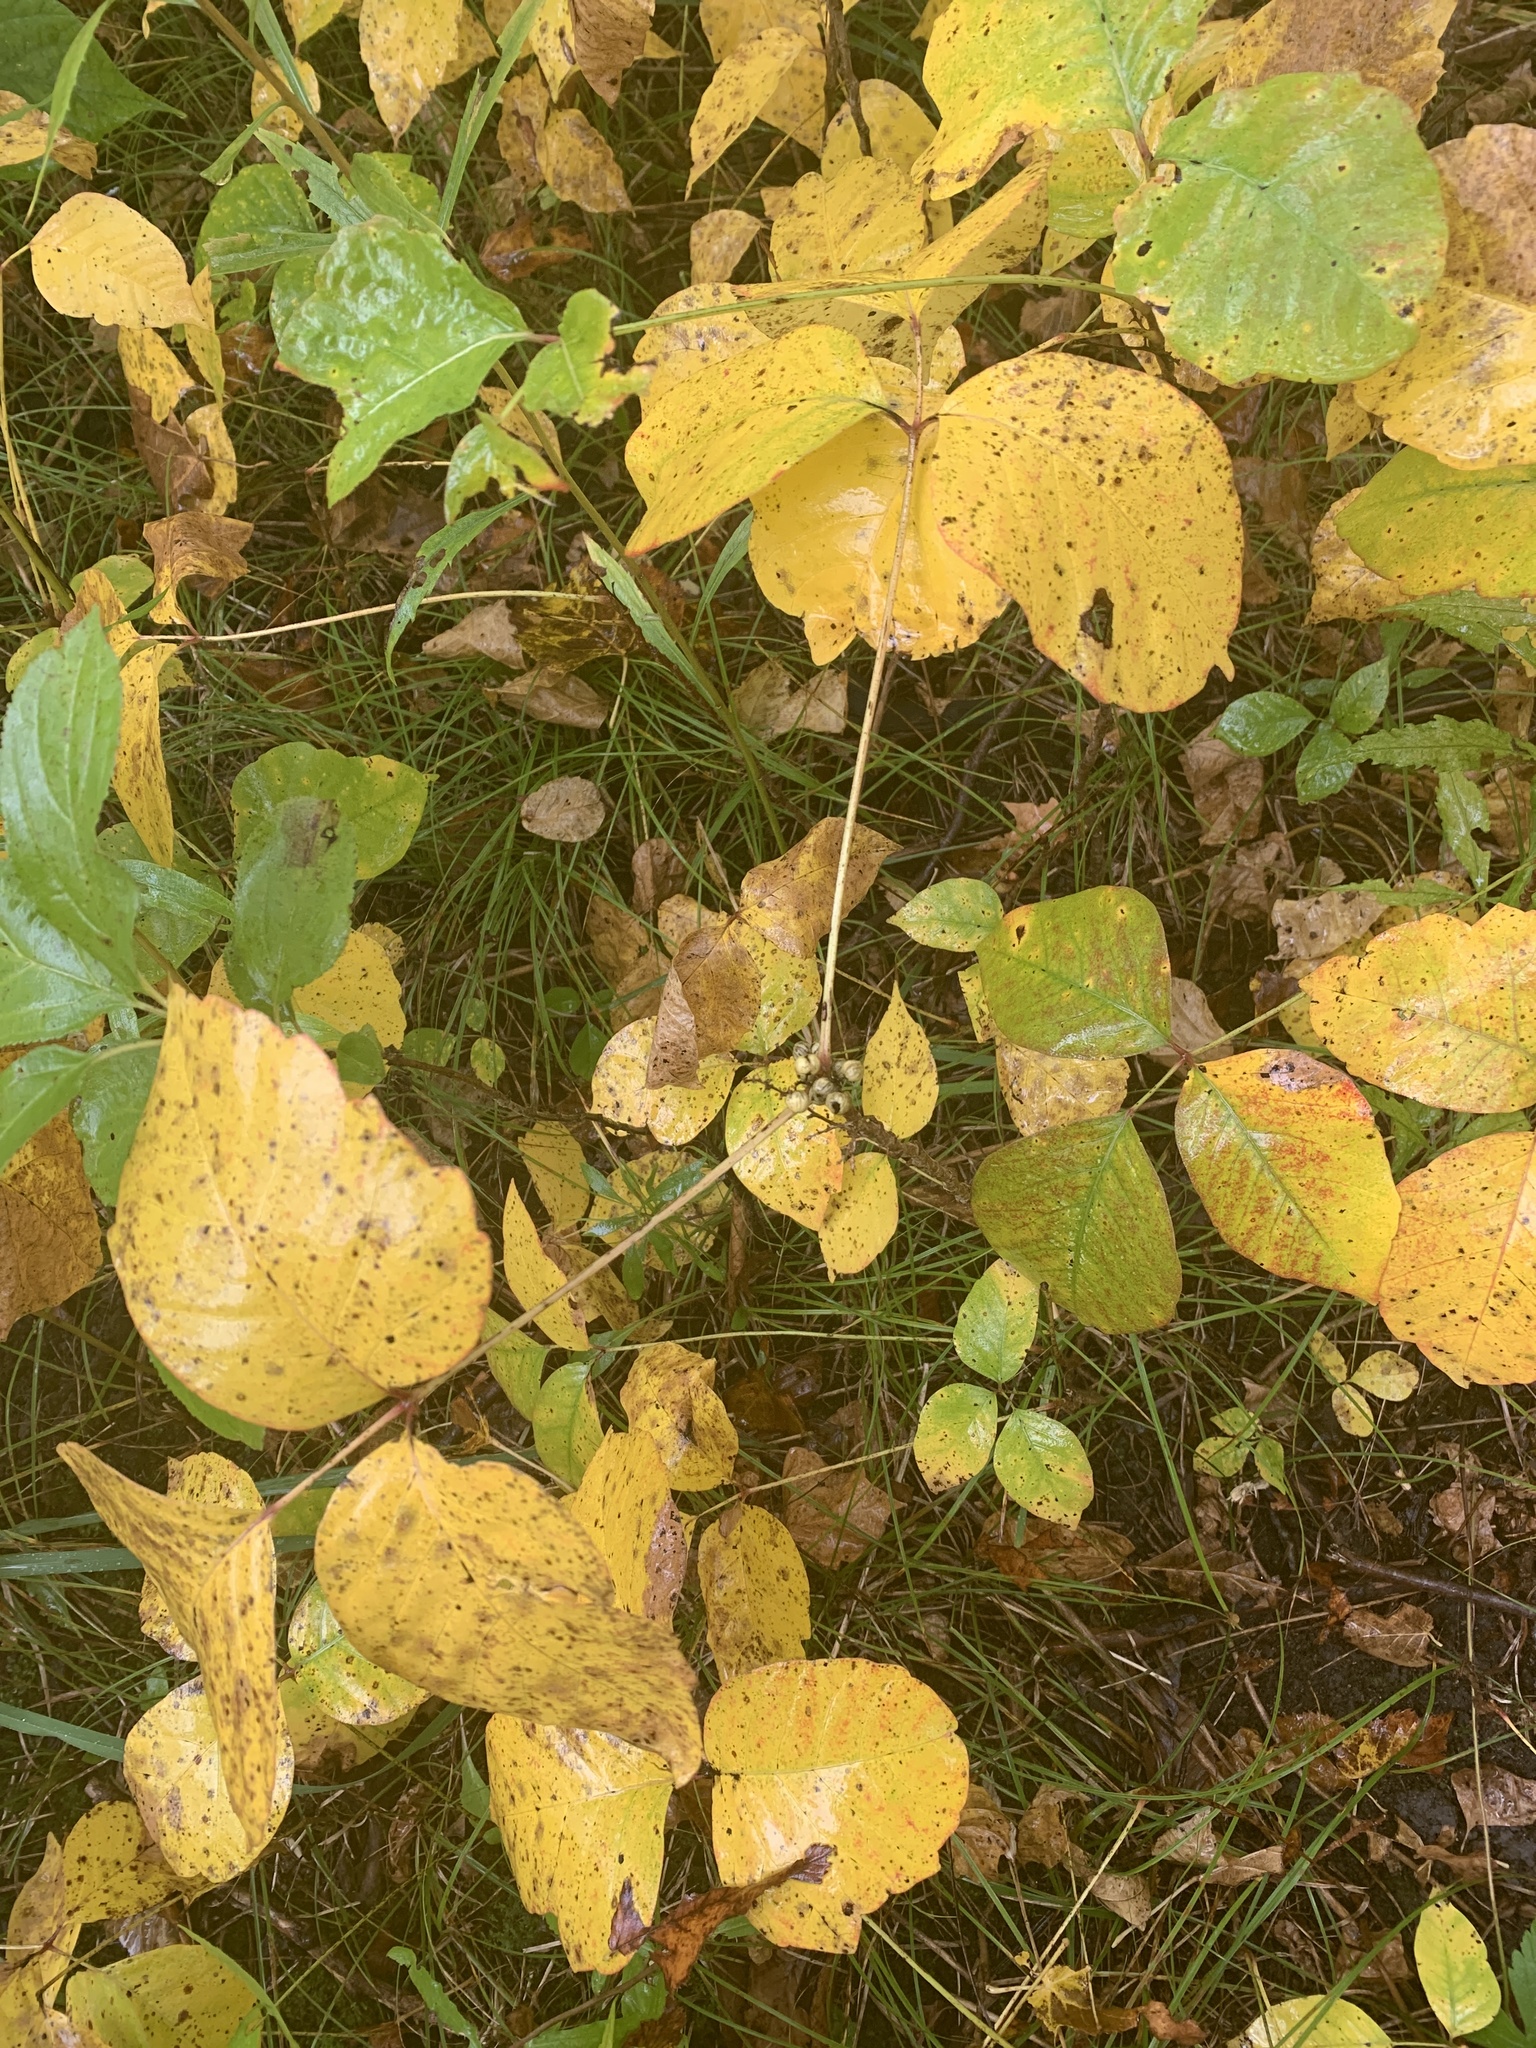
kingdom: Plantae
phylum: Tracheophyta
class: Magnoliopsida
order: Sapindales
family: Anacardiaceae
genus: Toxicodendron
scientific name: Toxicodendron rydbergii
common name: Rydberg's poison-ivy
